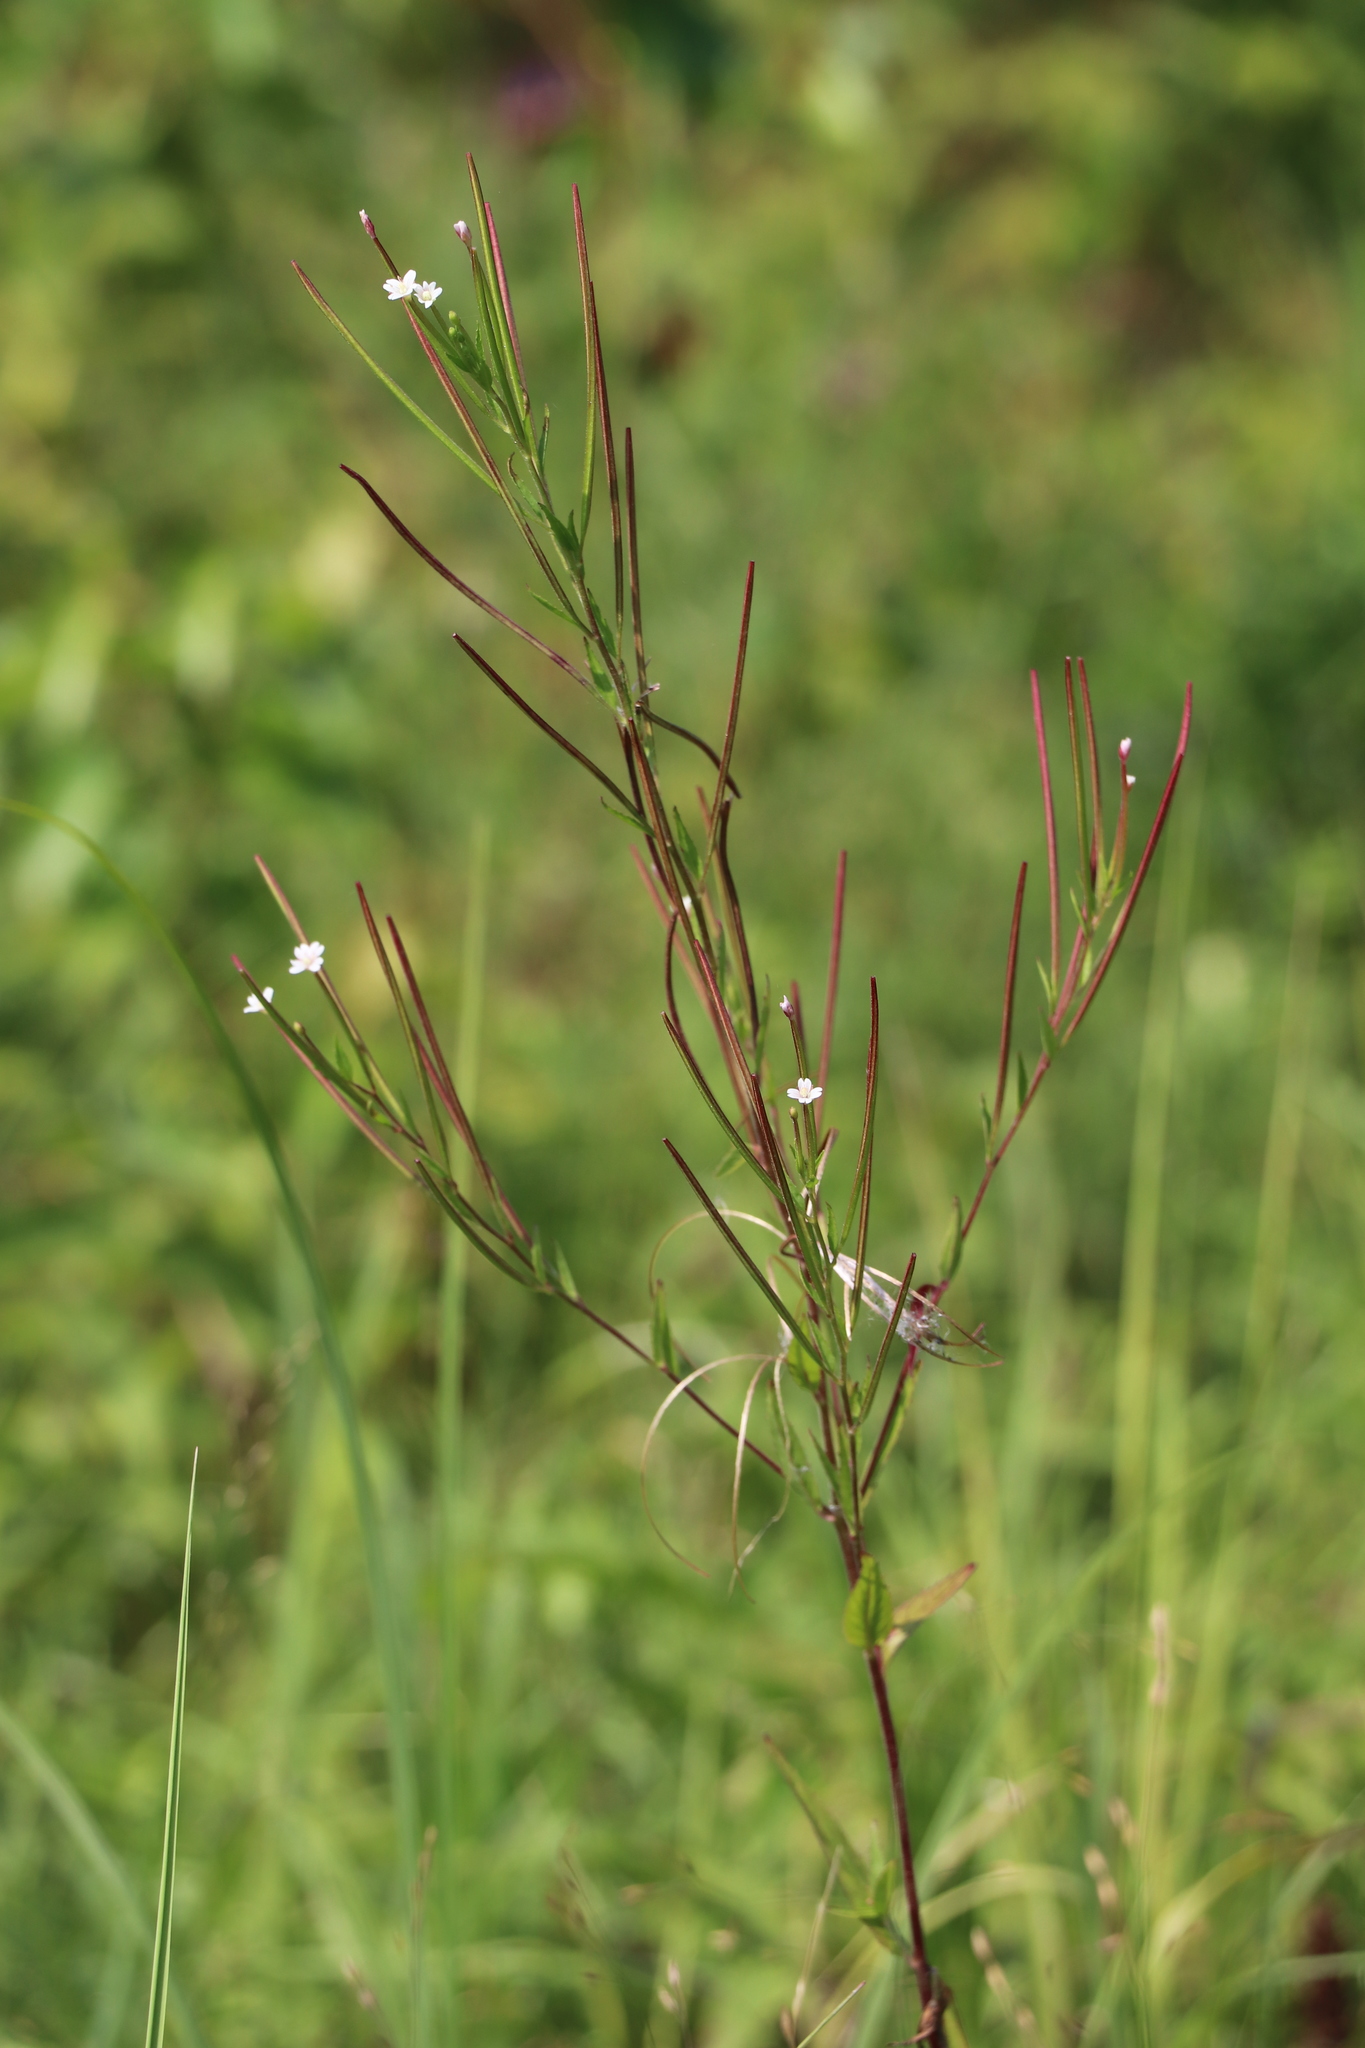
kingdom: Plantae
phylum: Tracheophyta
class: Magnoliopsida
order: Myrtales
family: Onagraceae
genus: Epilobium
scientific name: Epilobium palustre
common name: Marsh willowherb
